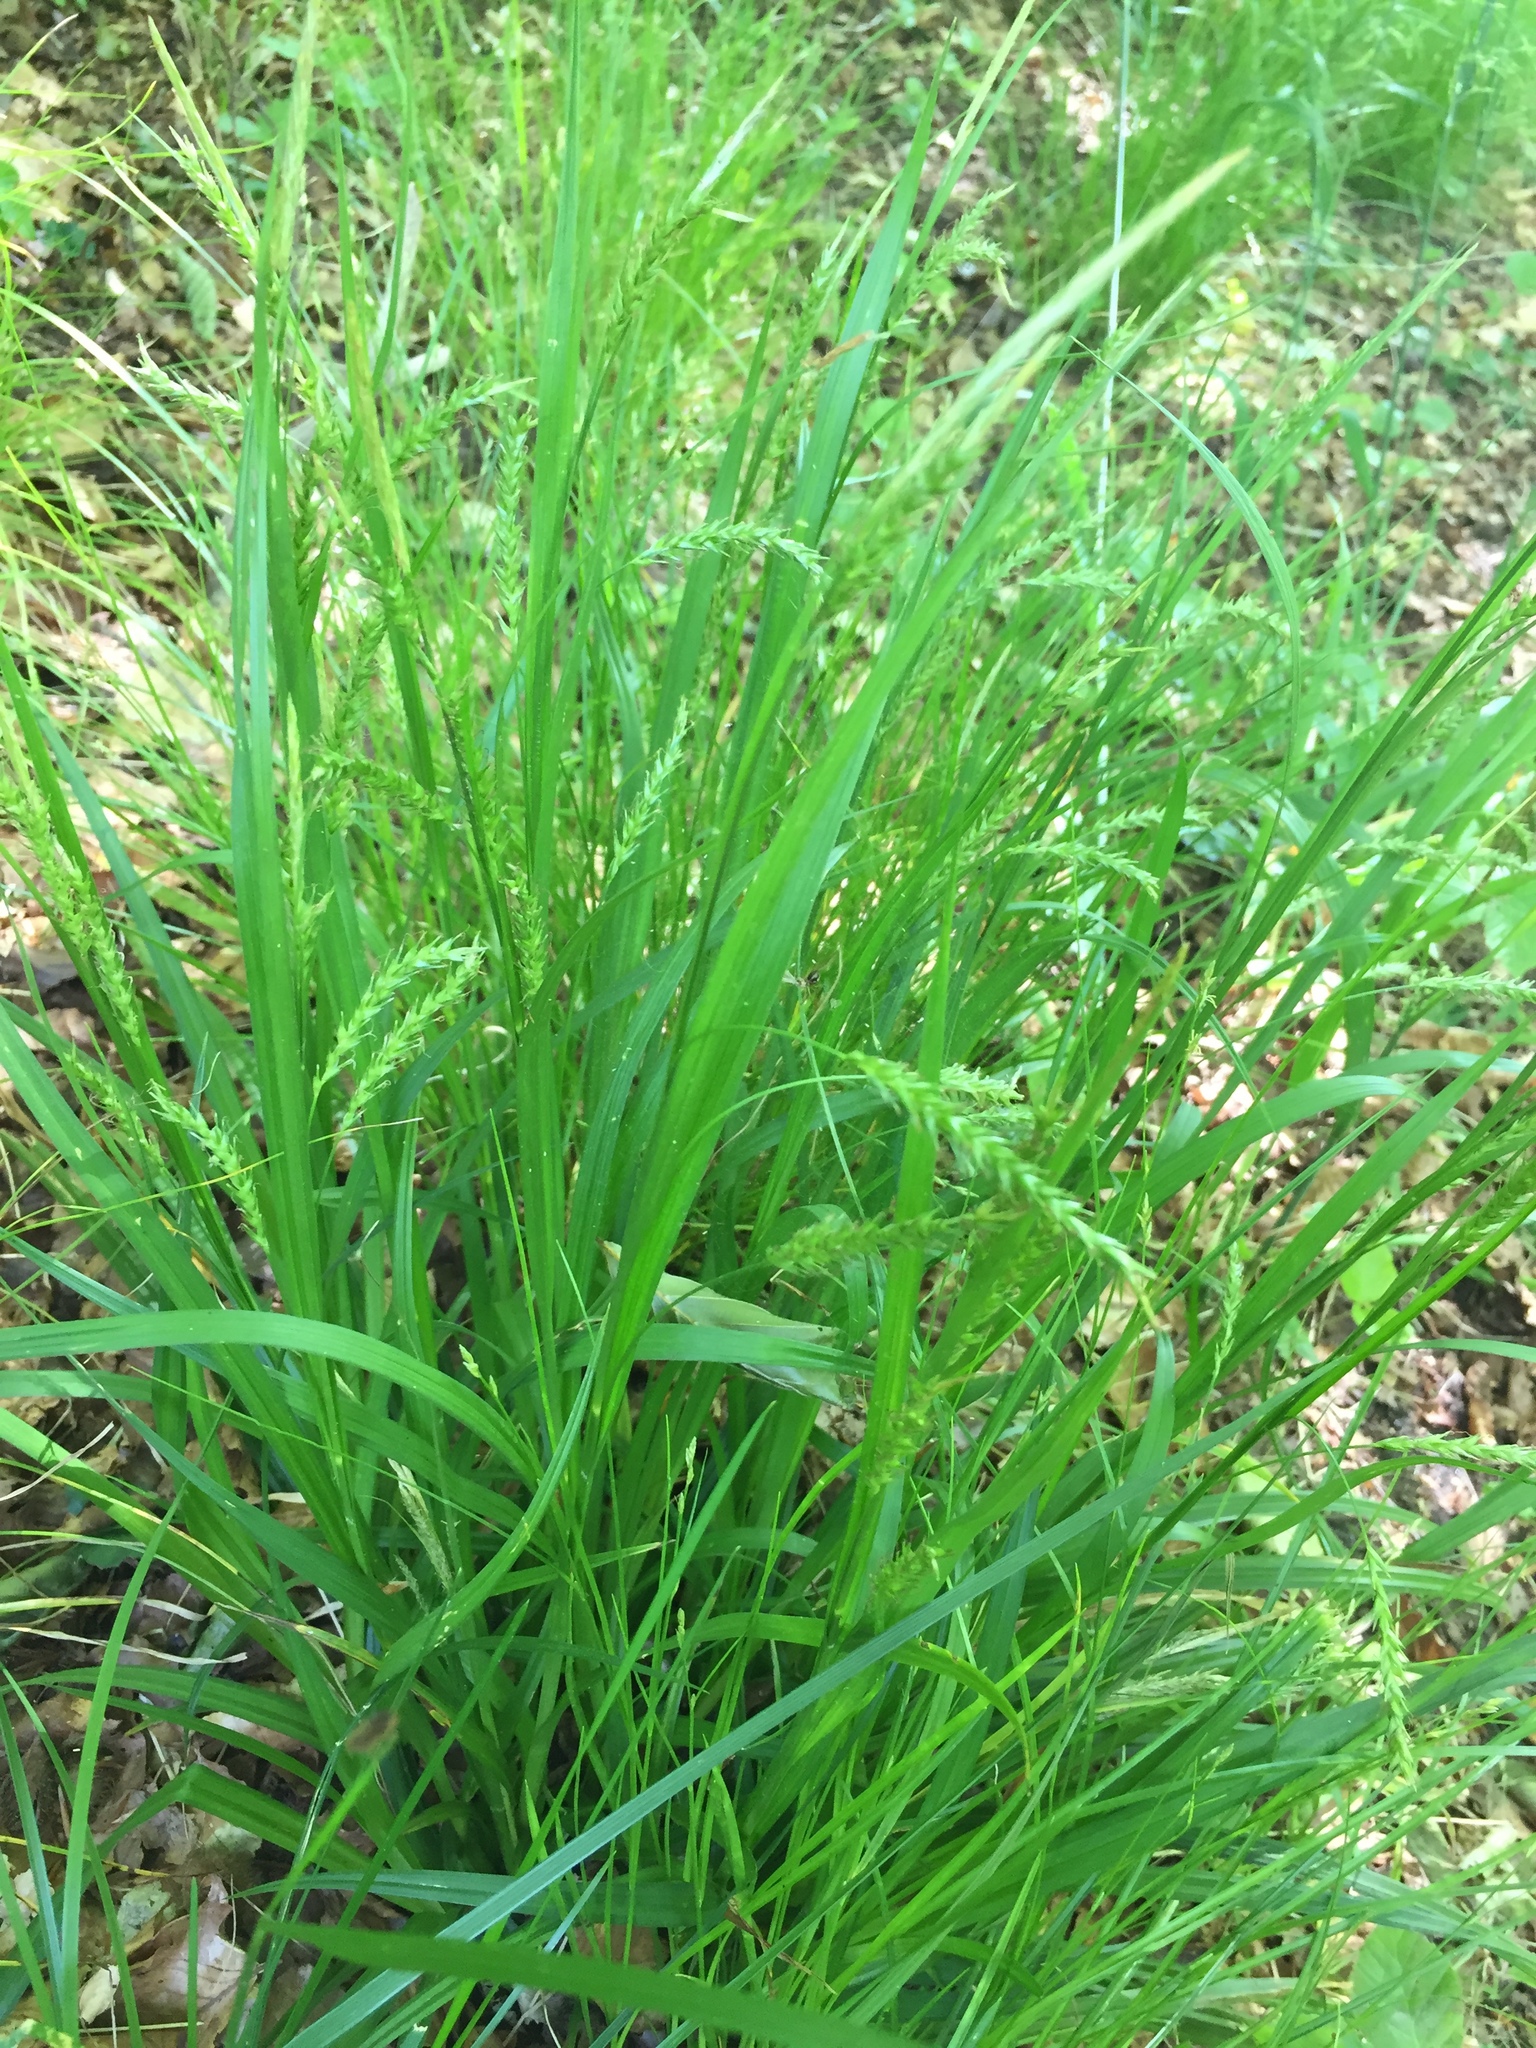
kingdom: Plantae
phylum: Tracheophyta
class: Liliopsida
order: Poales
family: Cyperaceae
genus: Carex
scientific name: Carex sylvatica
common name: Wood-sedge
